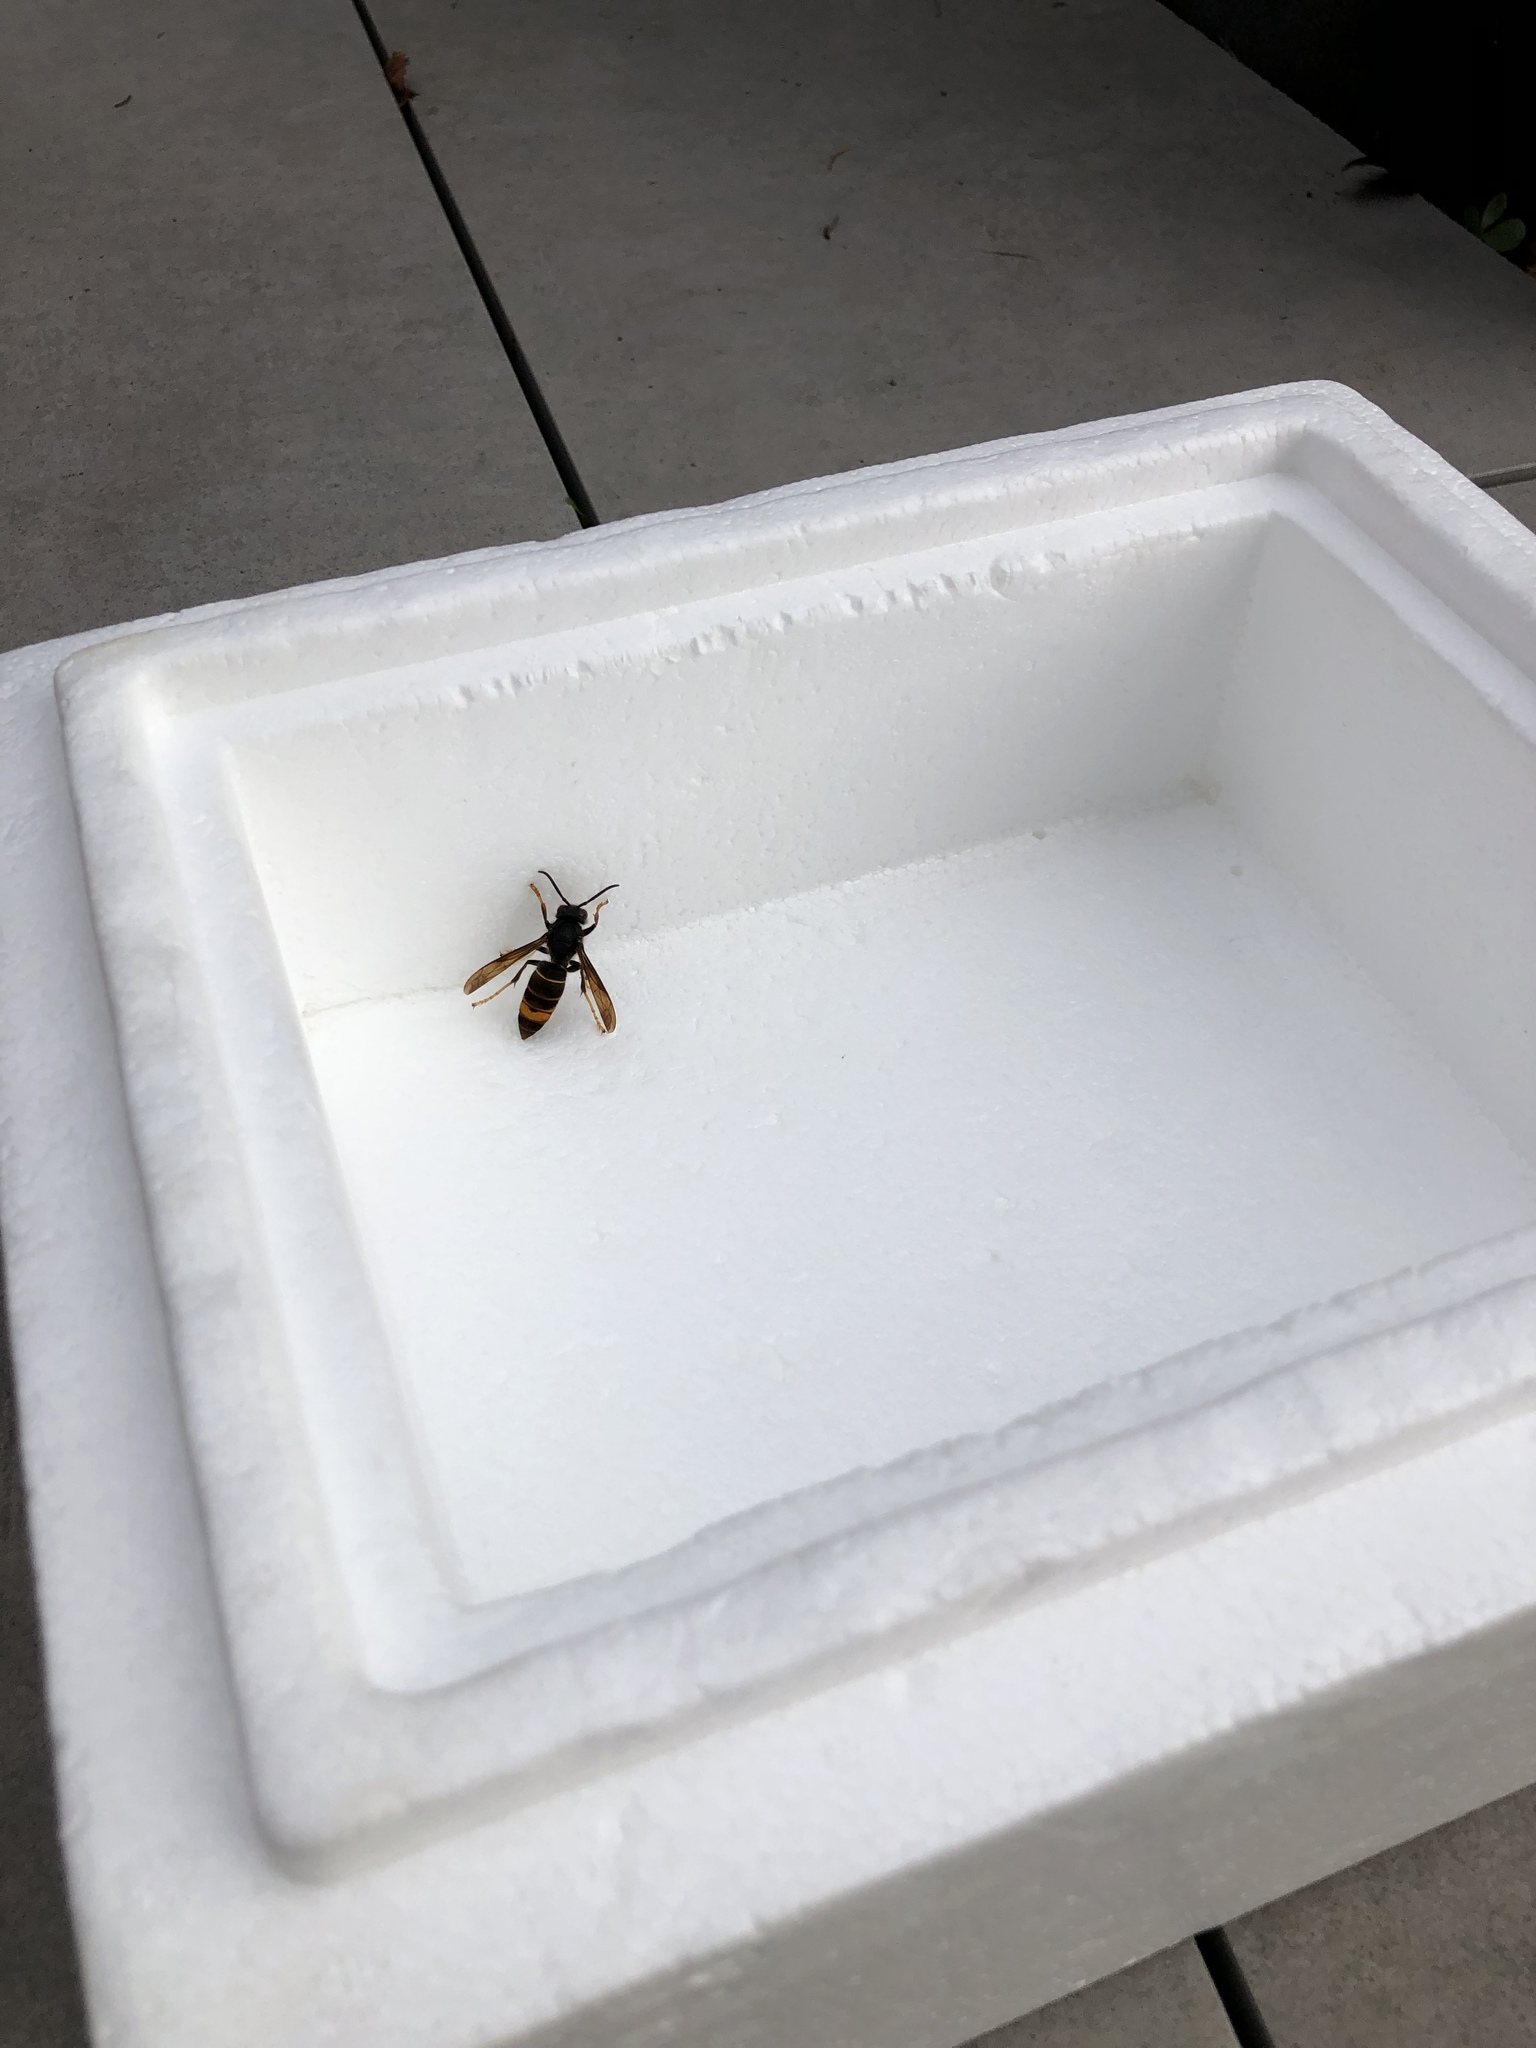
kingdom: Animalia
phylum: Arthropoda
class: Insecta
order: Hymenoptera
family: Vespidae
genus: Vespa
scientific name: Vespa velutina
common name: Asian hornet
